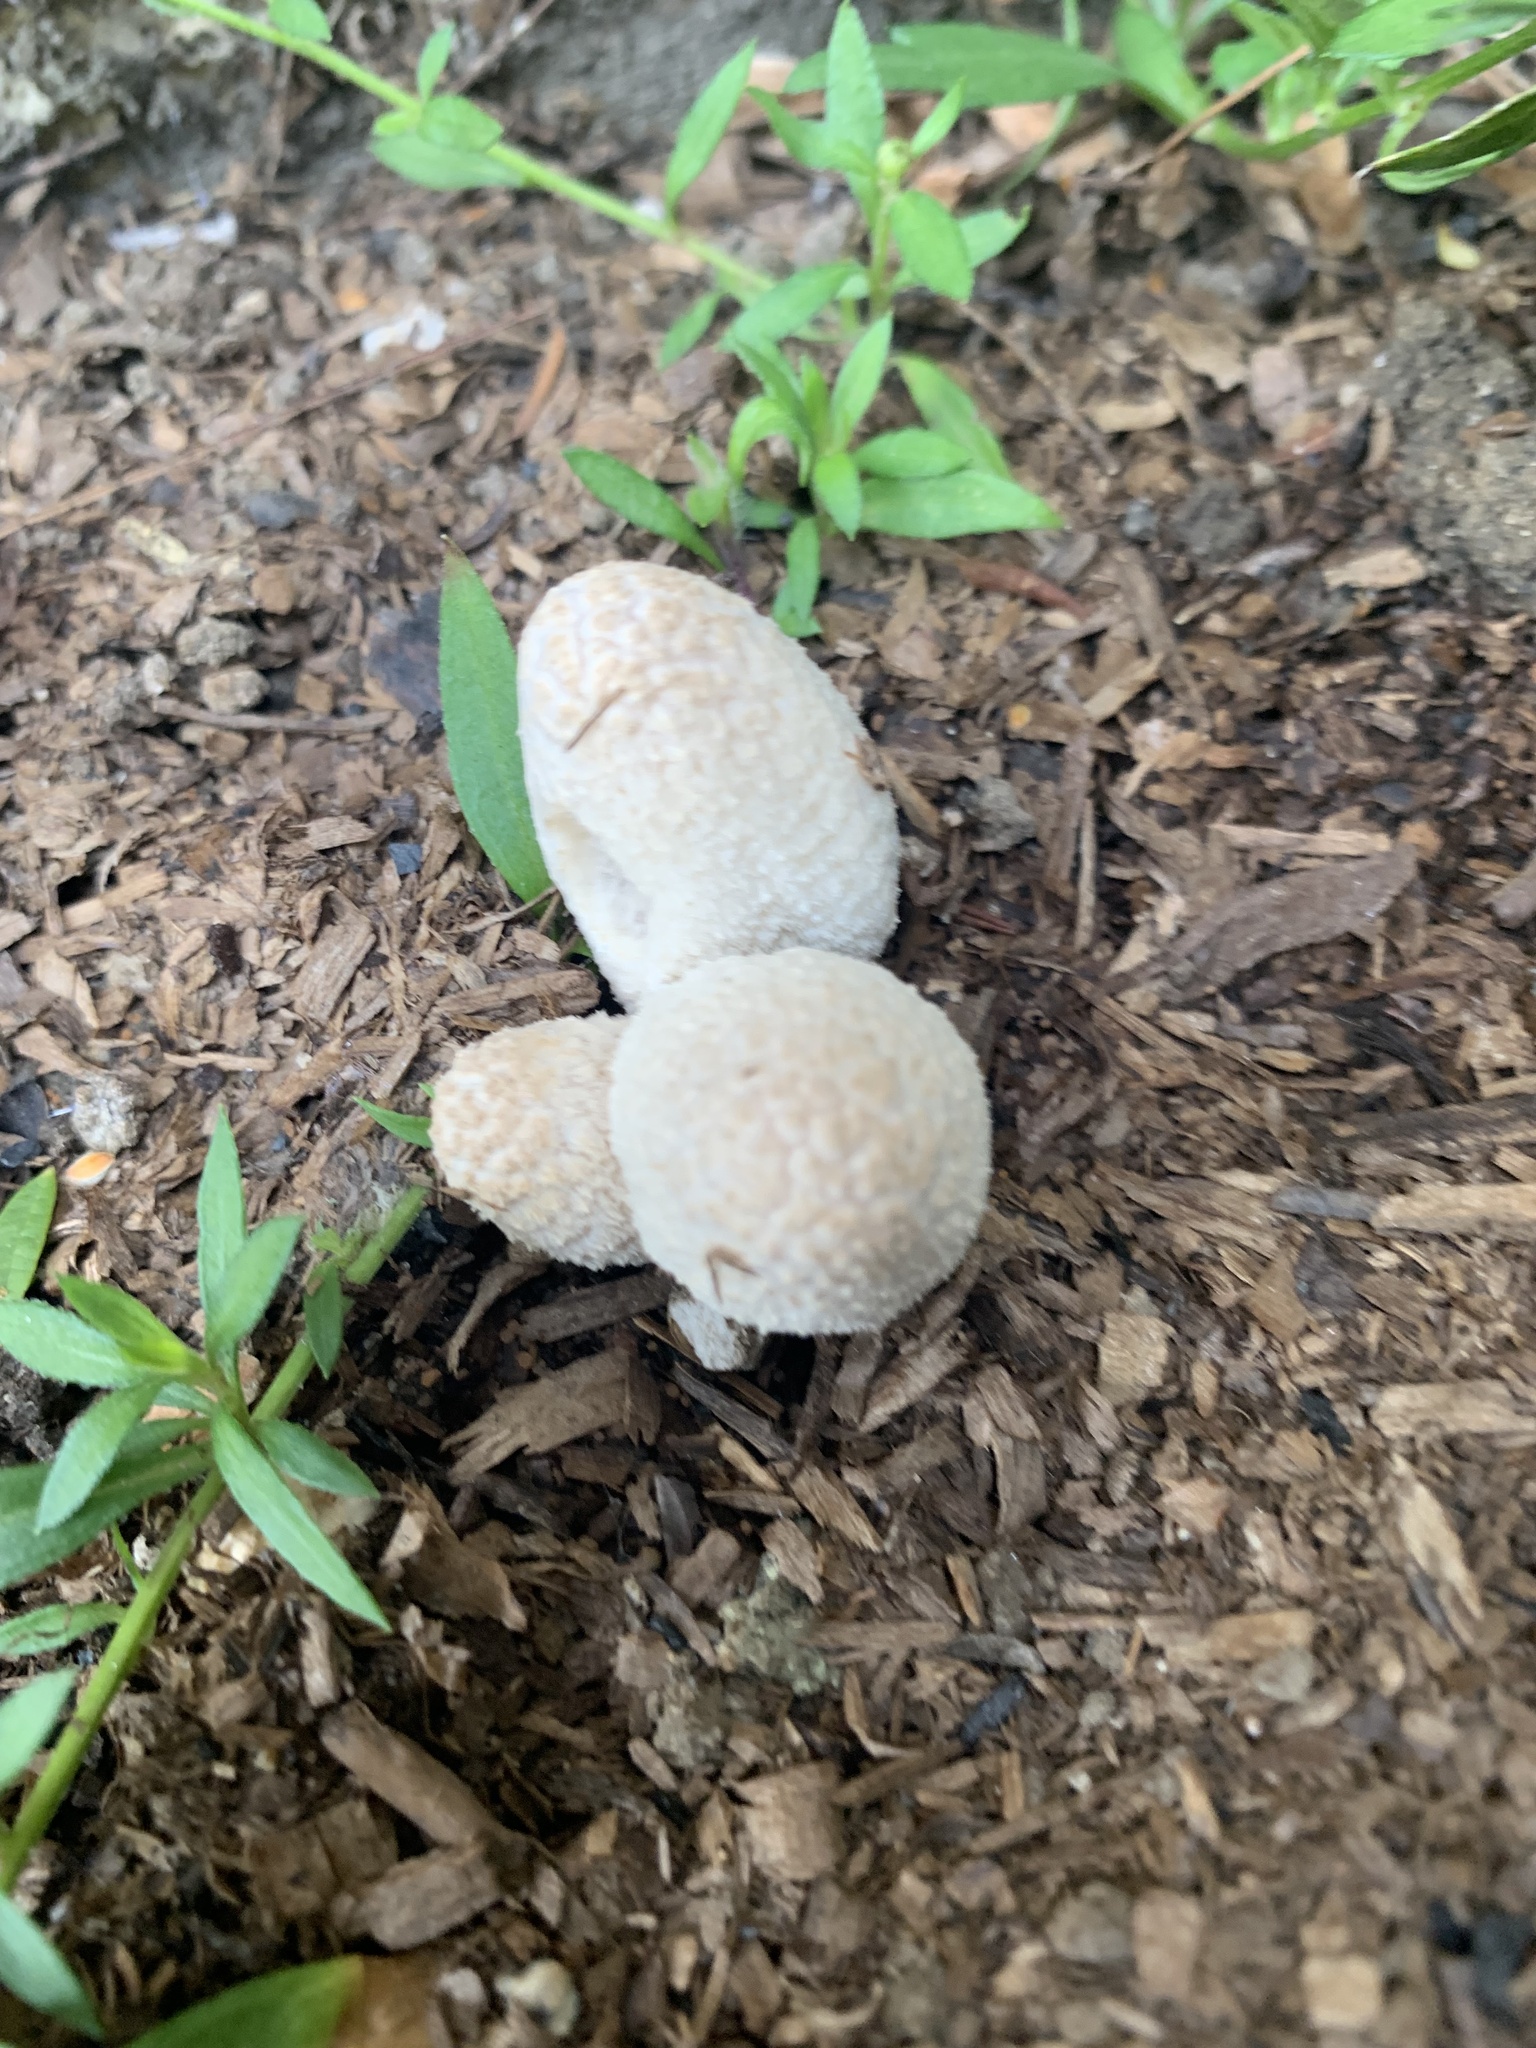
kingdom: Fungi
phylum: Basidiomycota
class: Agaricomycetes
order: Agaricales
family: Psathyrellaceae
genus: Coprinellus
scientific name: Coprinellus flocculosus
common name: Flocculose inkcap
